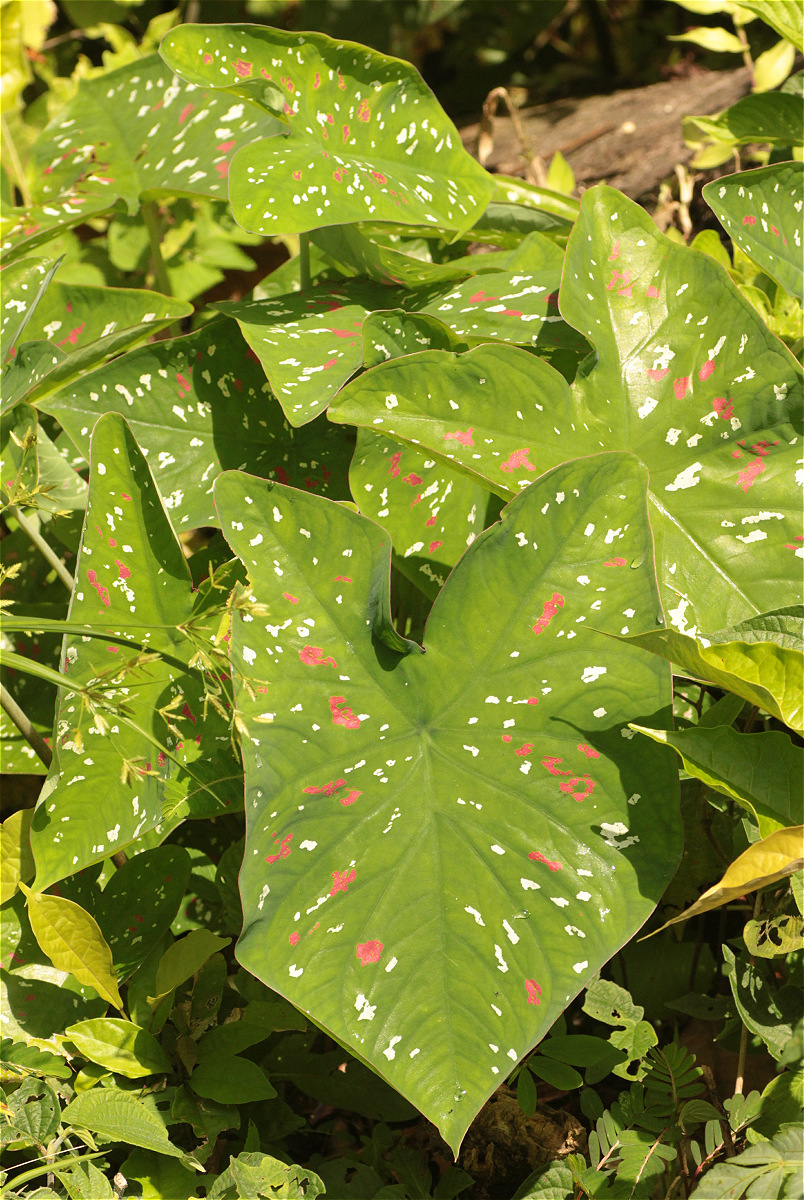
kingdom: Plantae
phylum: Tracheophyta
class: Liliopsida
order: Alismatales
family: Araceae
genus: Caladium
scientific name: Caladium bicolor
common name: Artist's pallet
